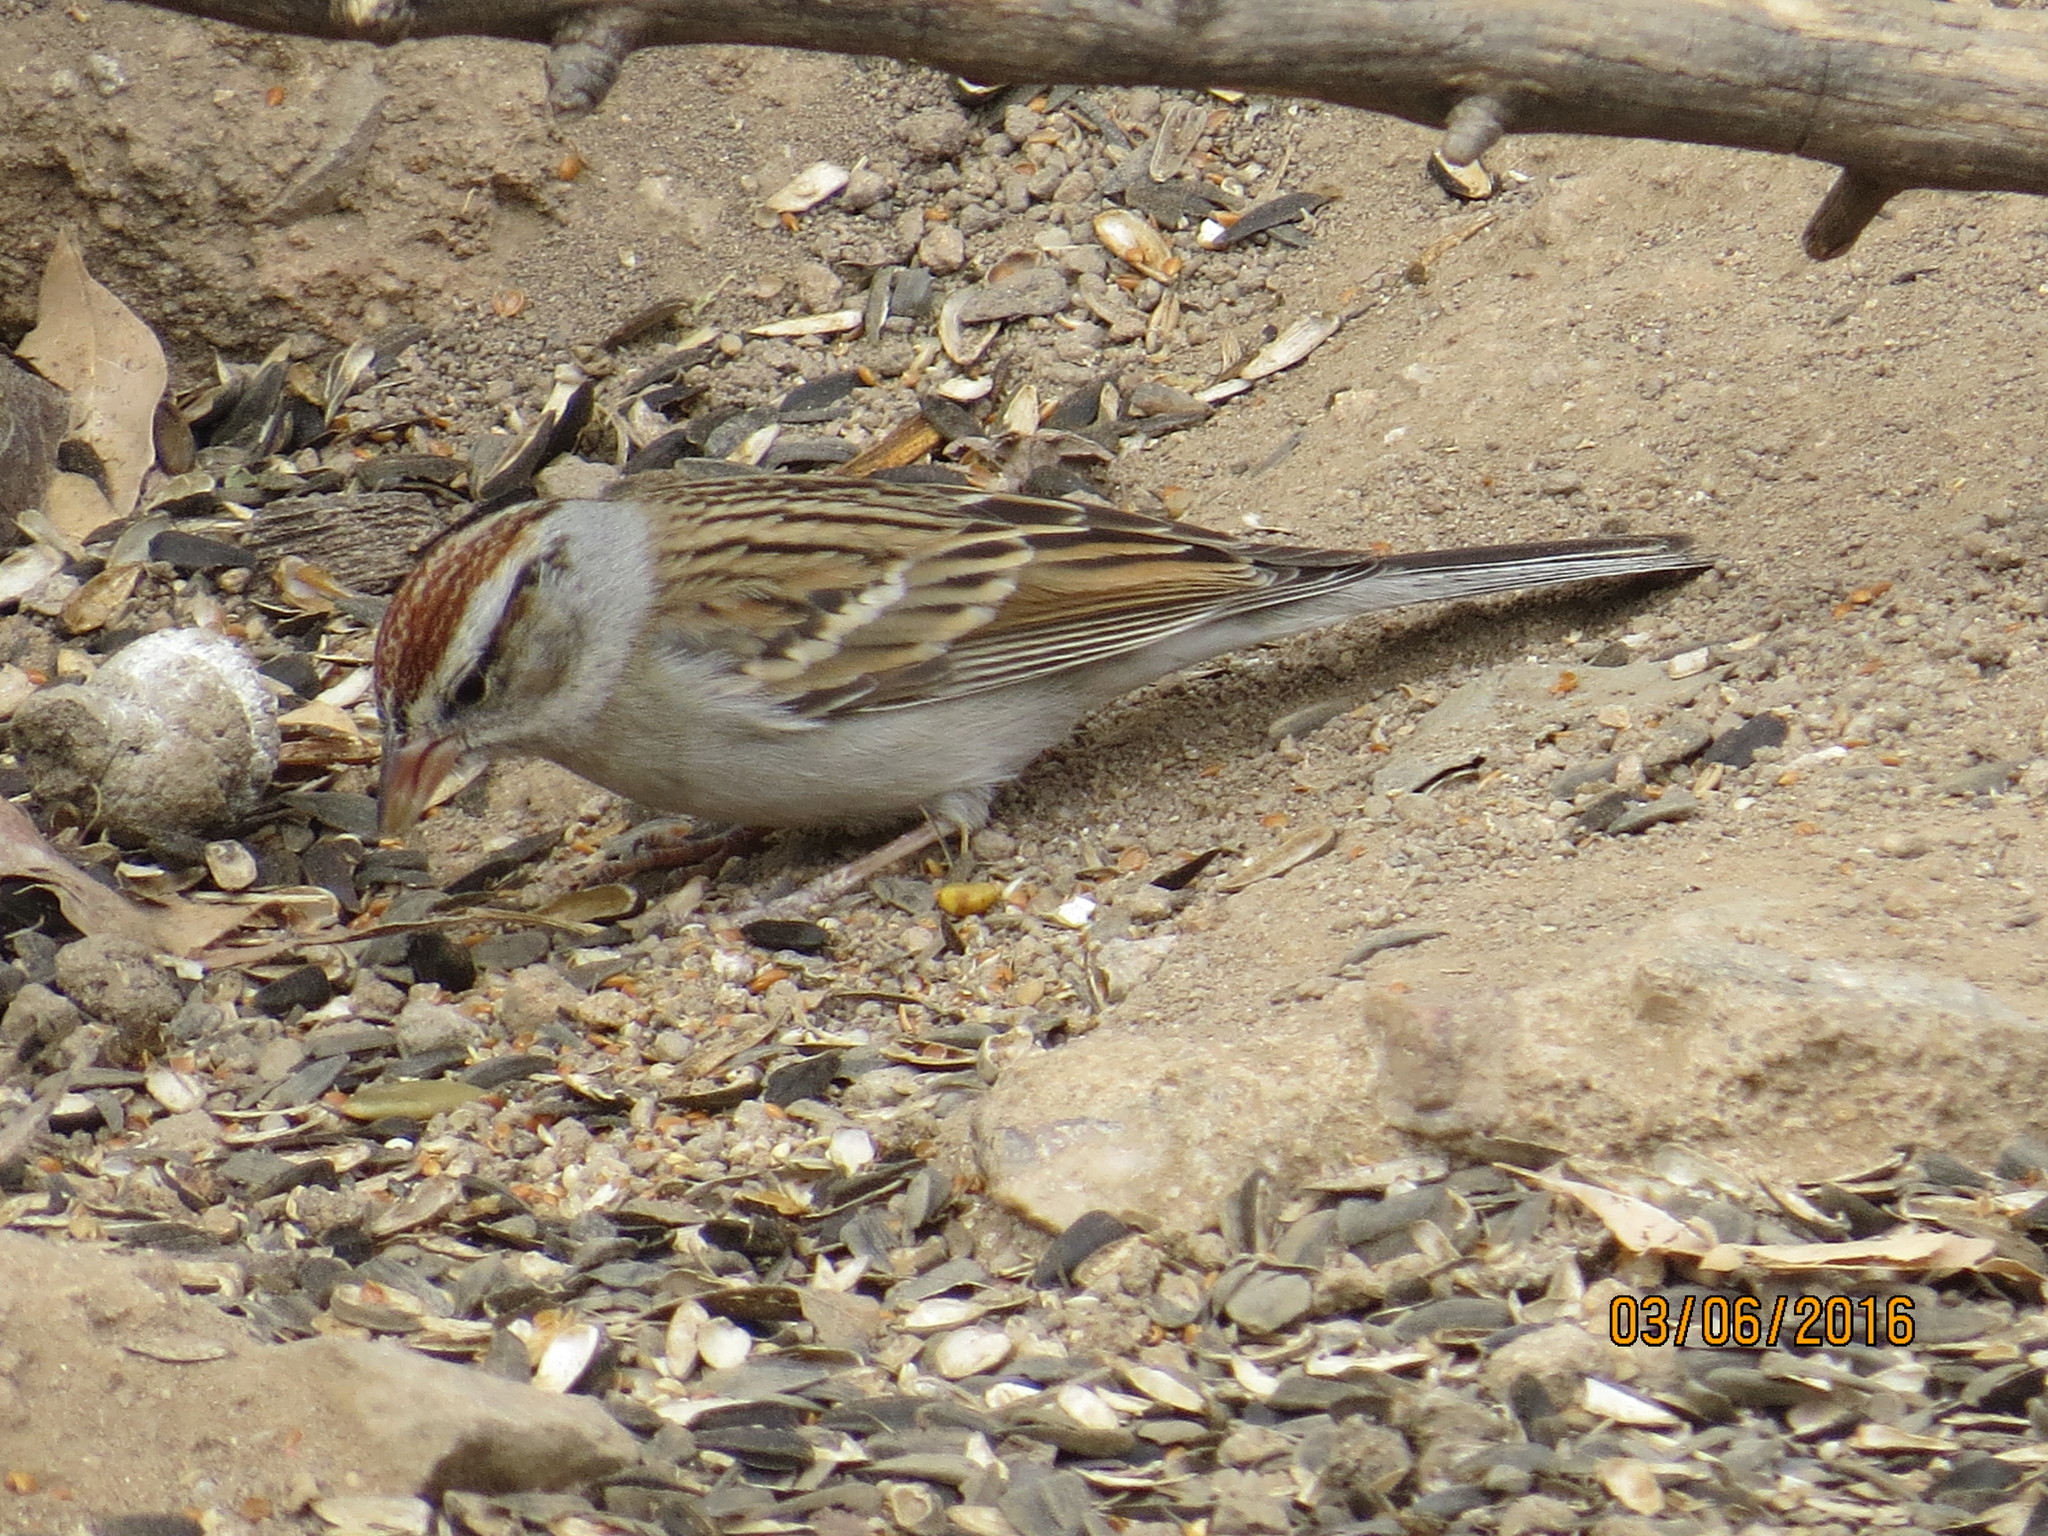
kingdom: Animalia
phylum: Chordata
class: Aves
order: Passeriformes
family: Passerellidae
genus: Spizella
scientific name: Spizella passerina
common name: Chipping sparrow
